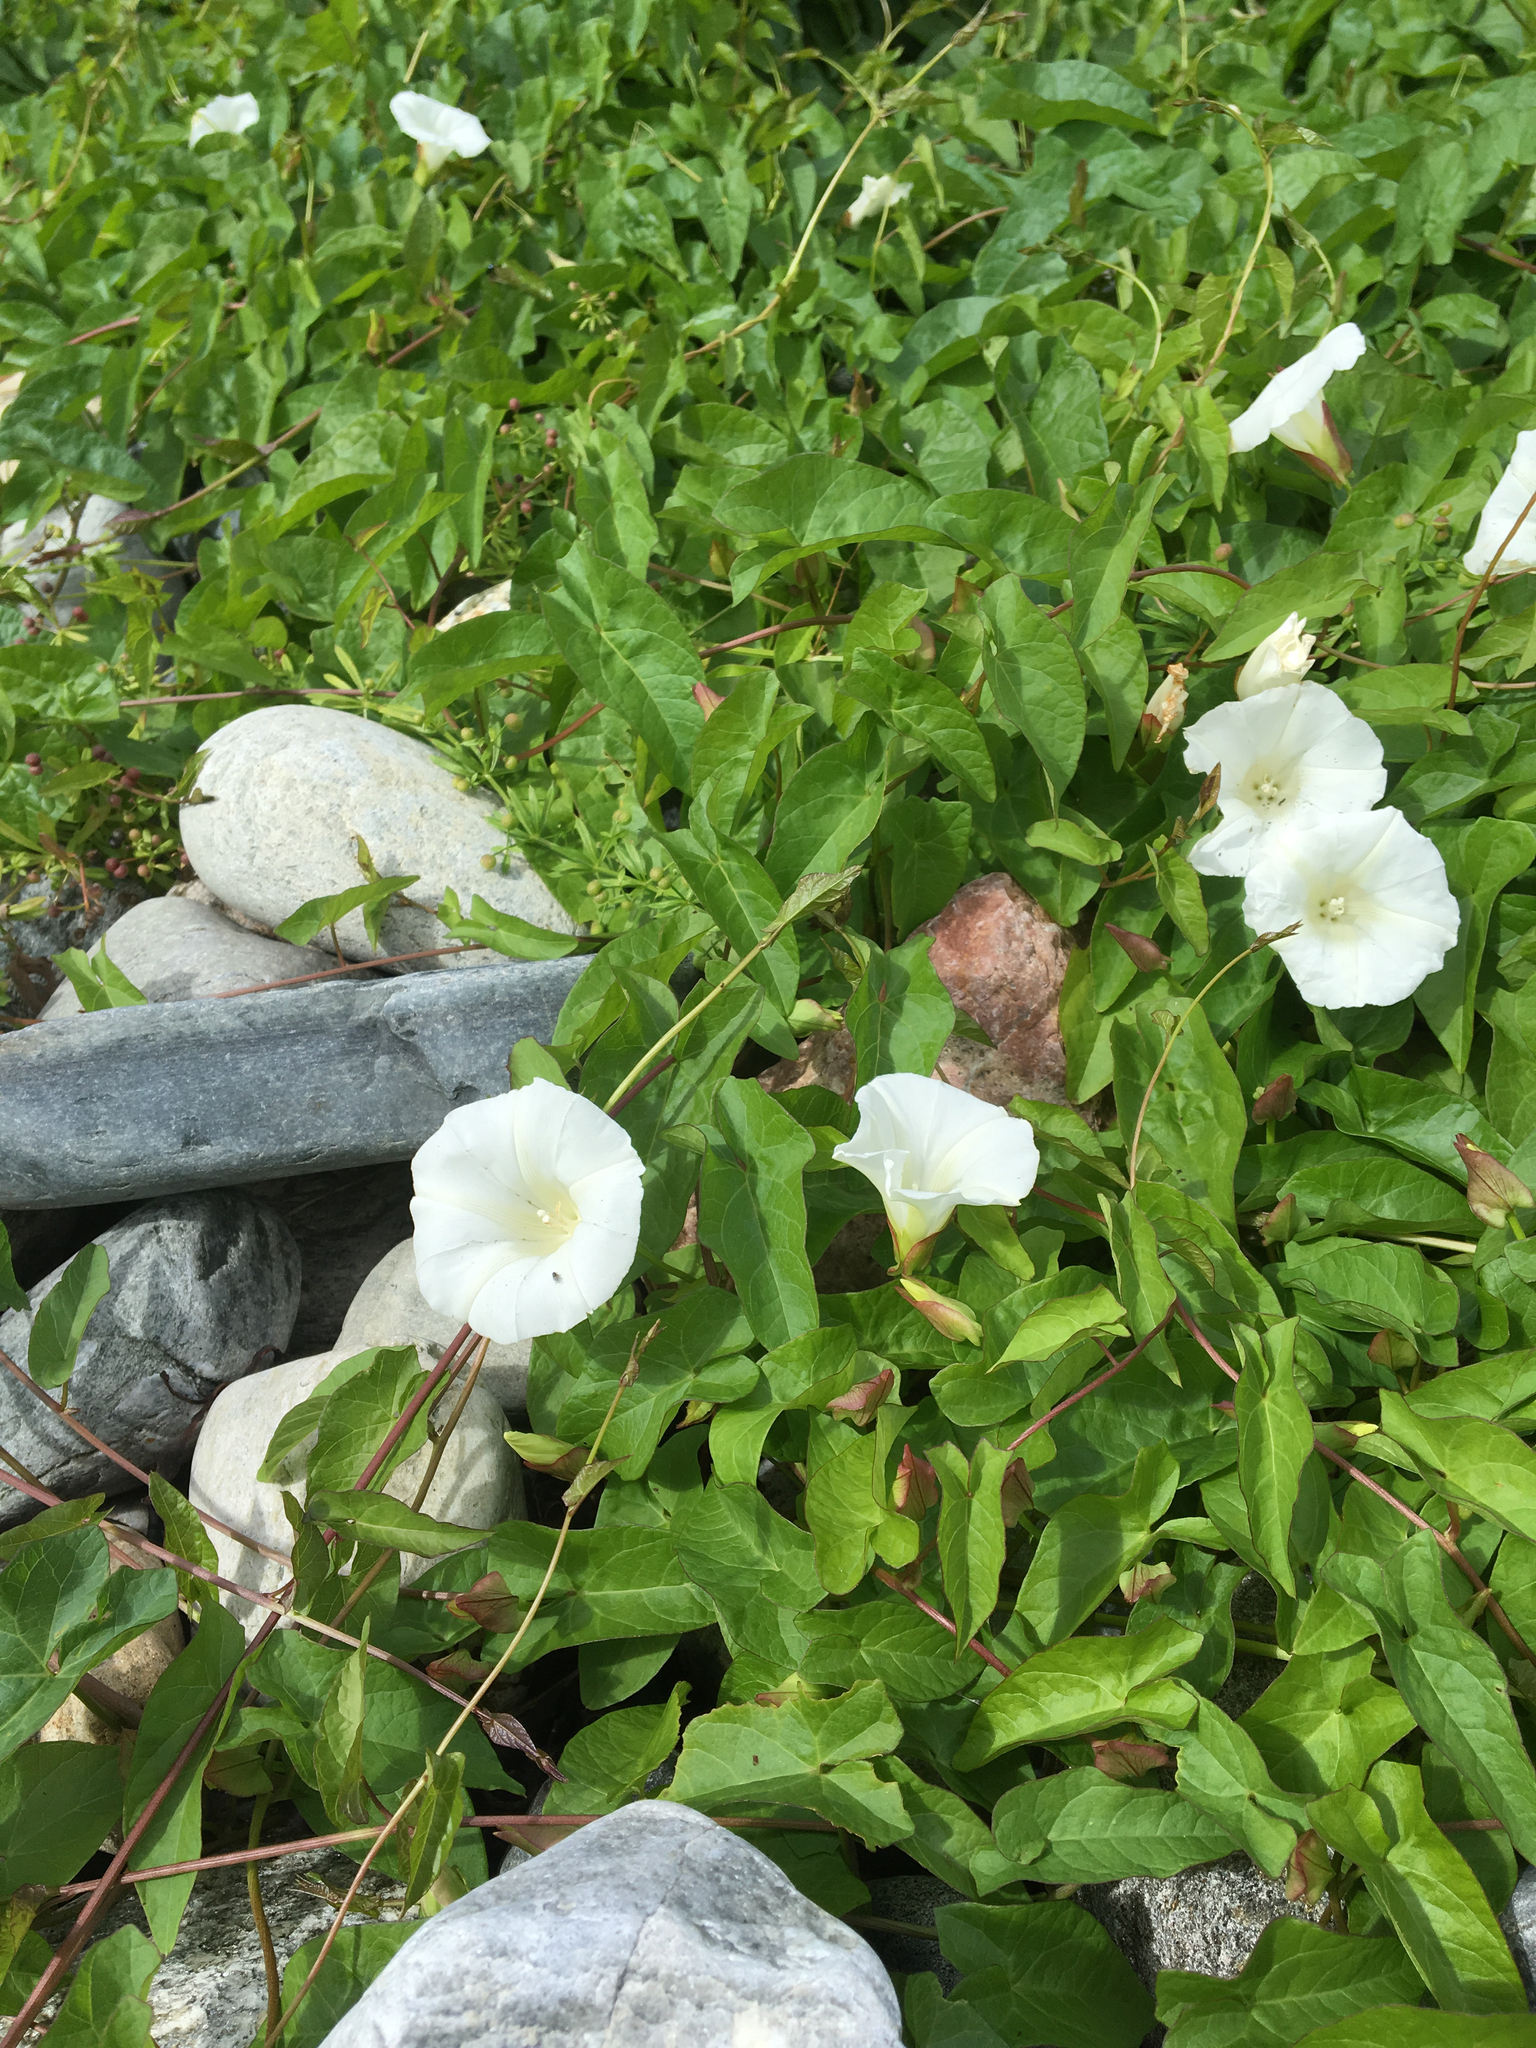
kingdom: Plantae
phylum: Tracheophyta
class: Magnoliopsida
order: Solanales
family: Convolvulaceae
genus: Calystegia
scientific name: Calystegia sepium
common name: Hedge bindweed
